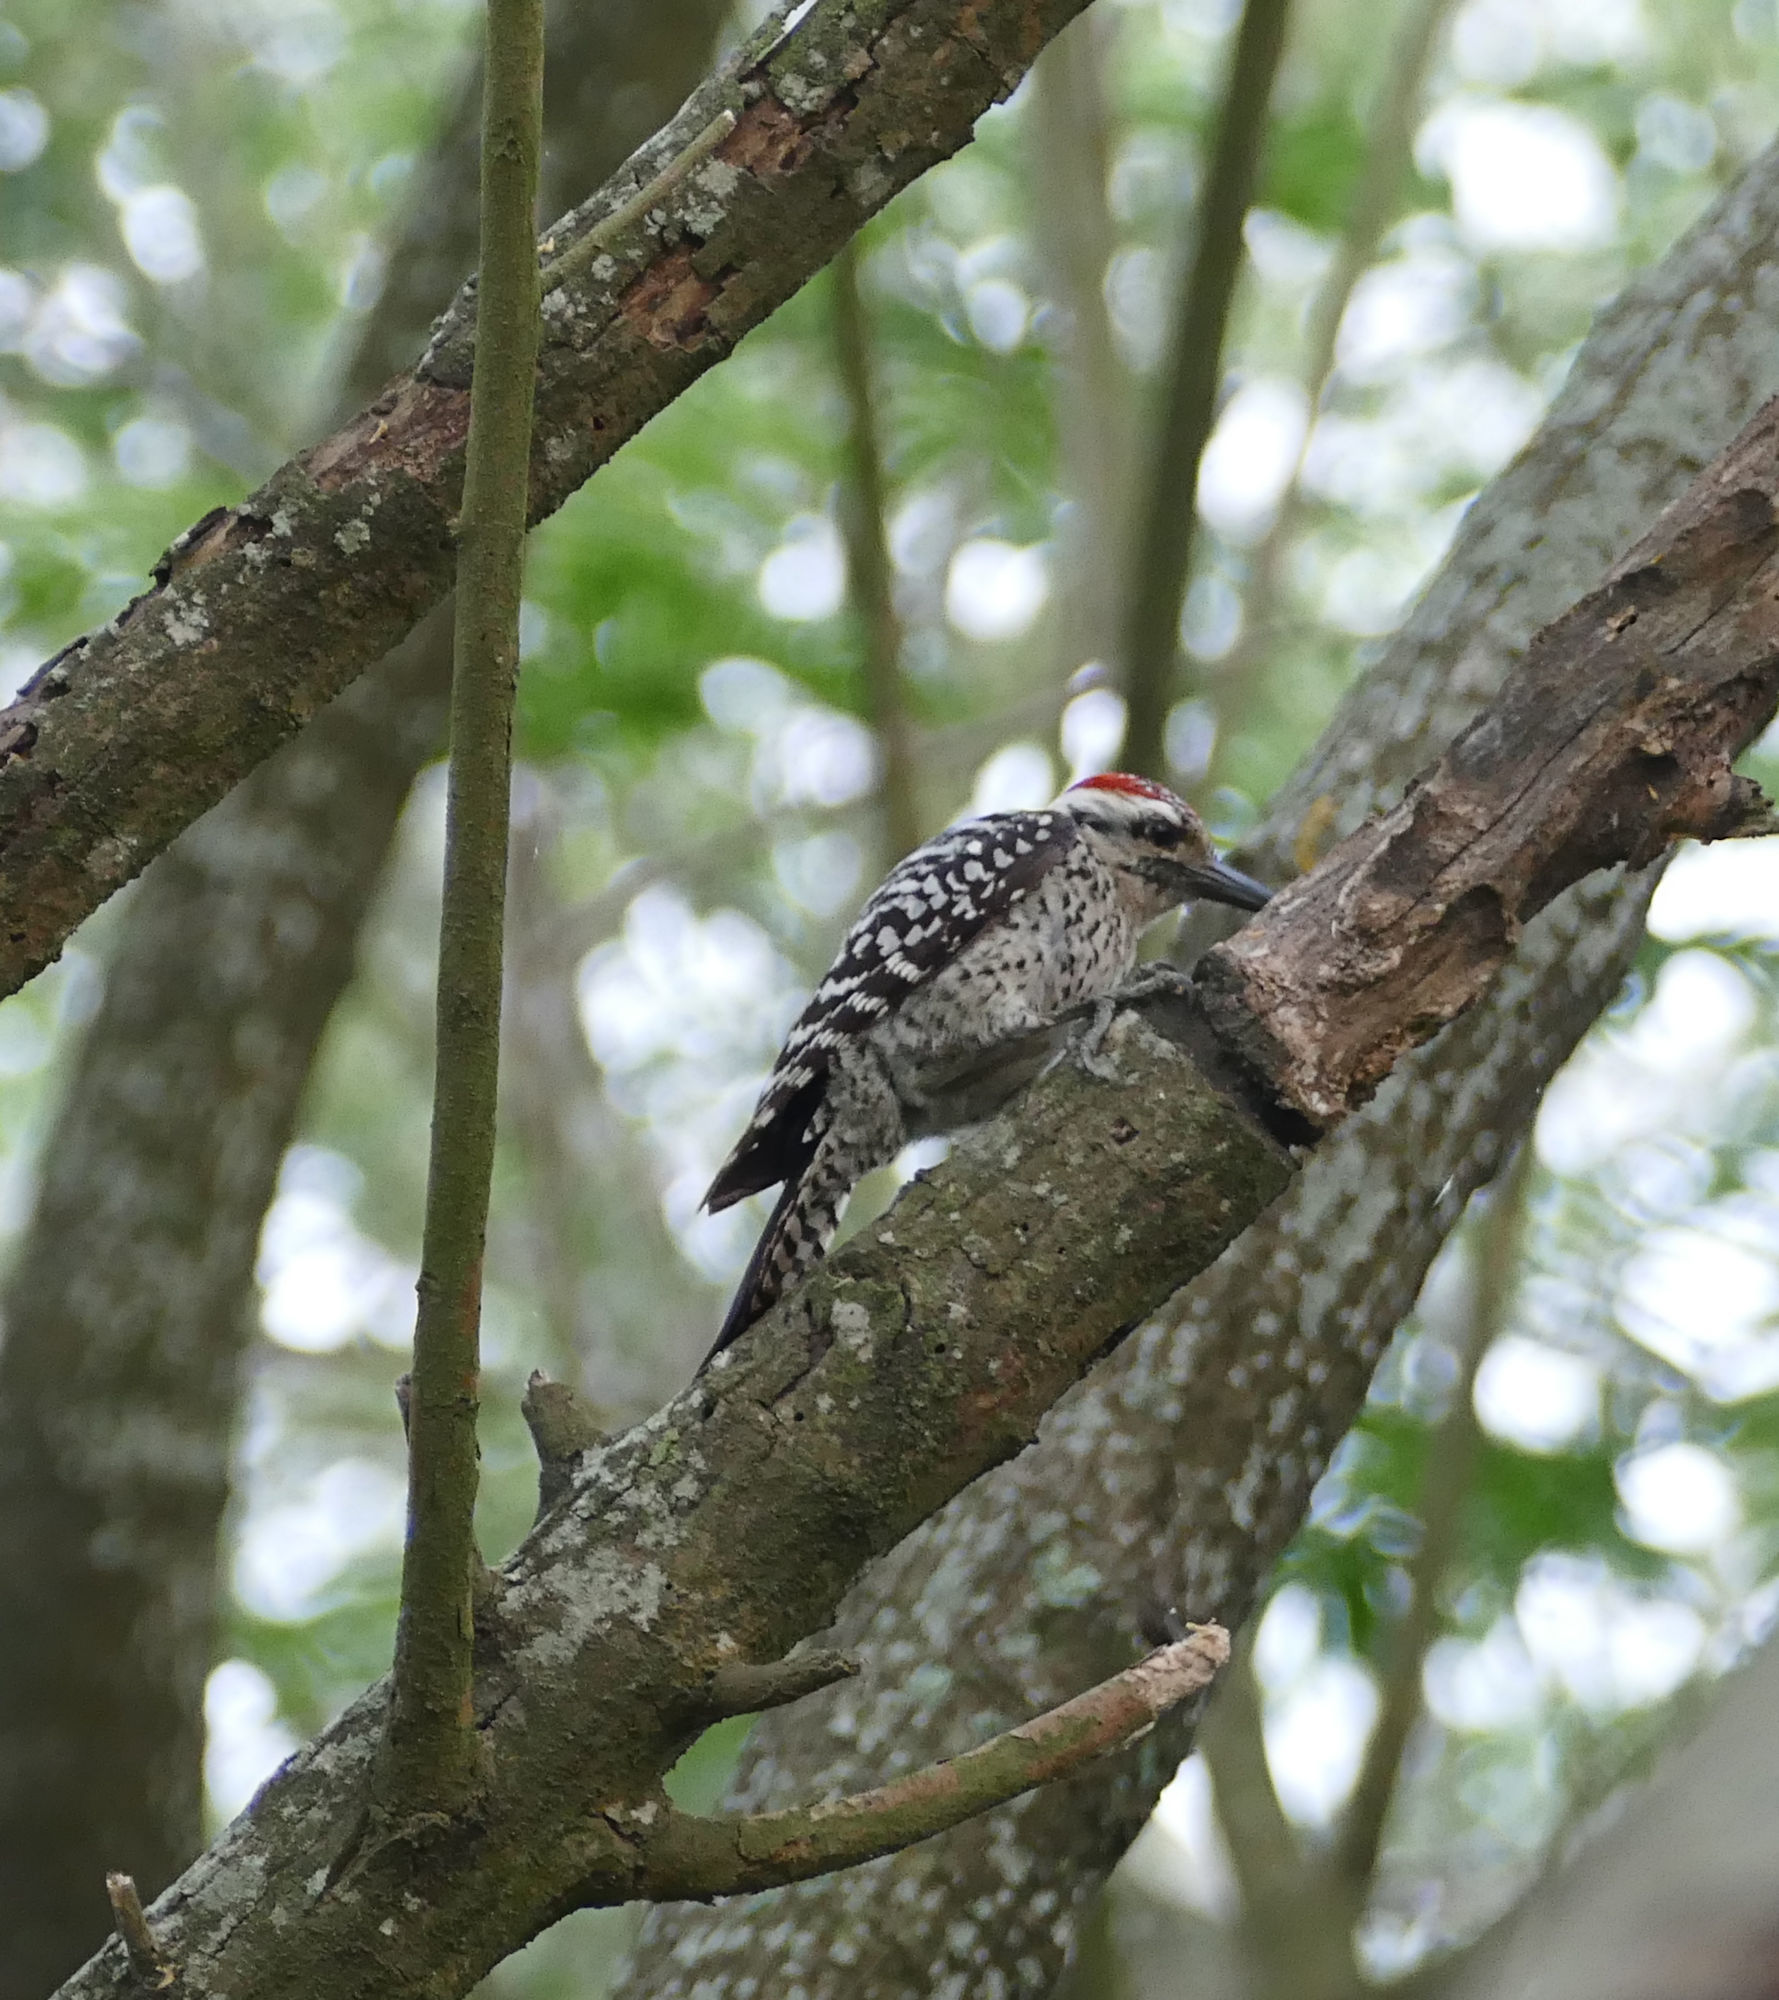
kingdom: Animalia
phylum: Chordata
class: Aves
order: Piciformes
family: Picidae
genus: Dryobates
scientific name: Dryobates scalaris
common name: Ladder-backed woodpecker
